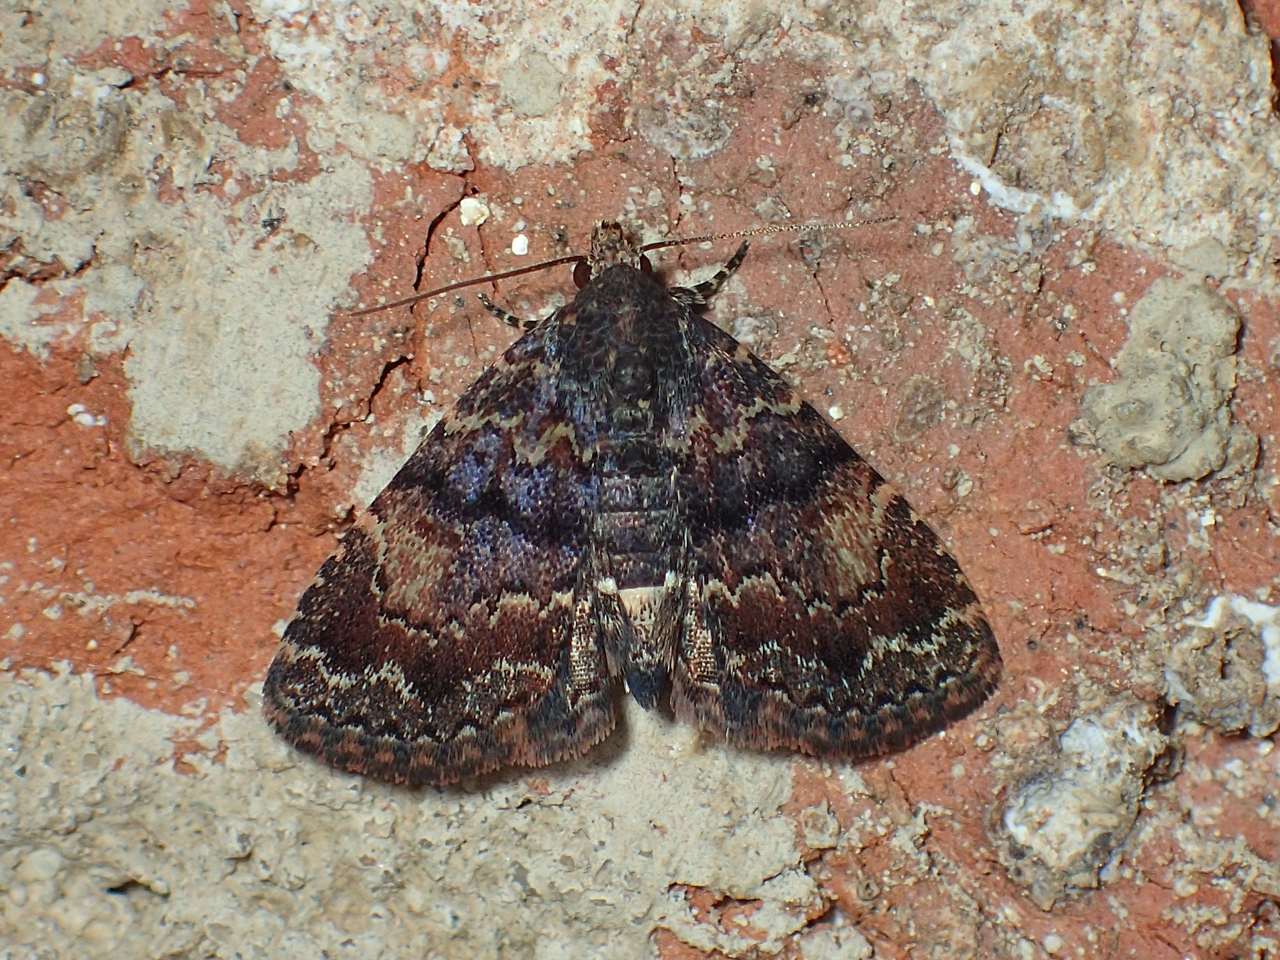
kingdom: Animalia
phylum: Arthropoda
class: Insecta
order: Lepidoptera
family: Erebidae
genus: Metalectra
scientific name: Metalectra richardsi
